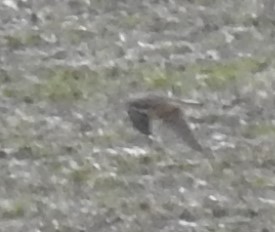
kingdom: Animalia
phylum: Chordata
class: Aves
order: Falconiformes
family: Falconidae
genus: Falco
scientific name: Falco columbarius
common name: Merlin
